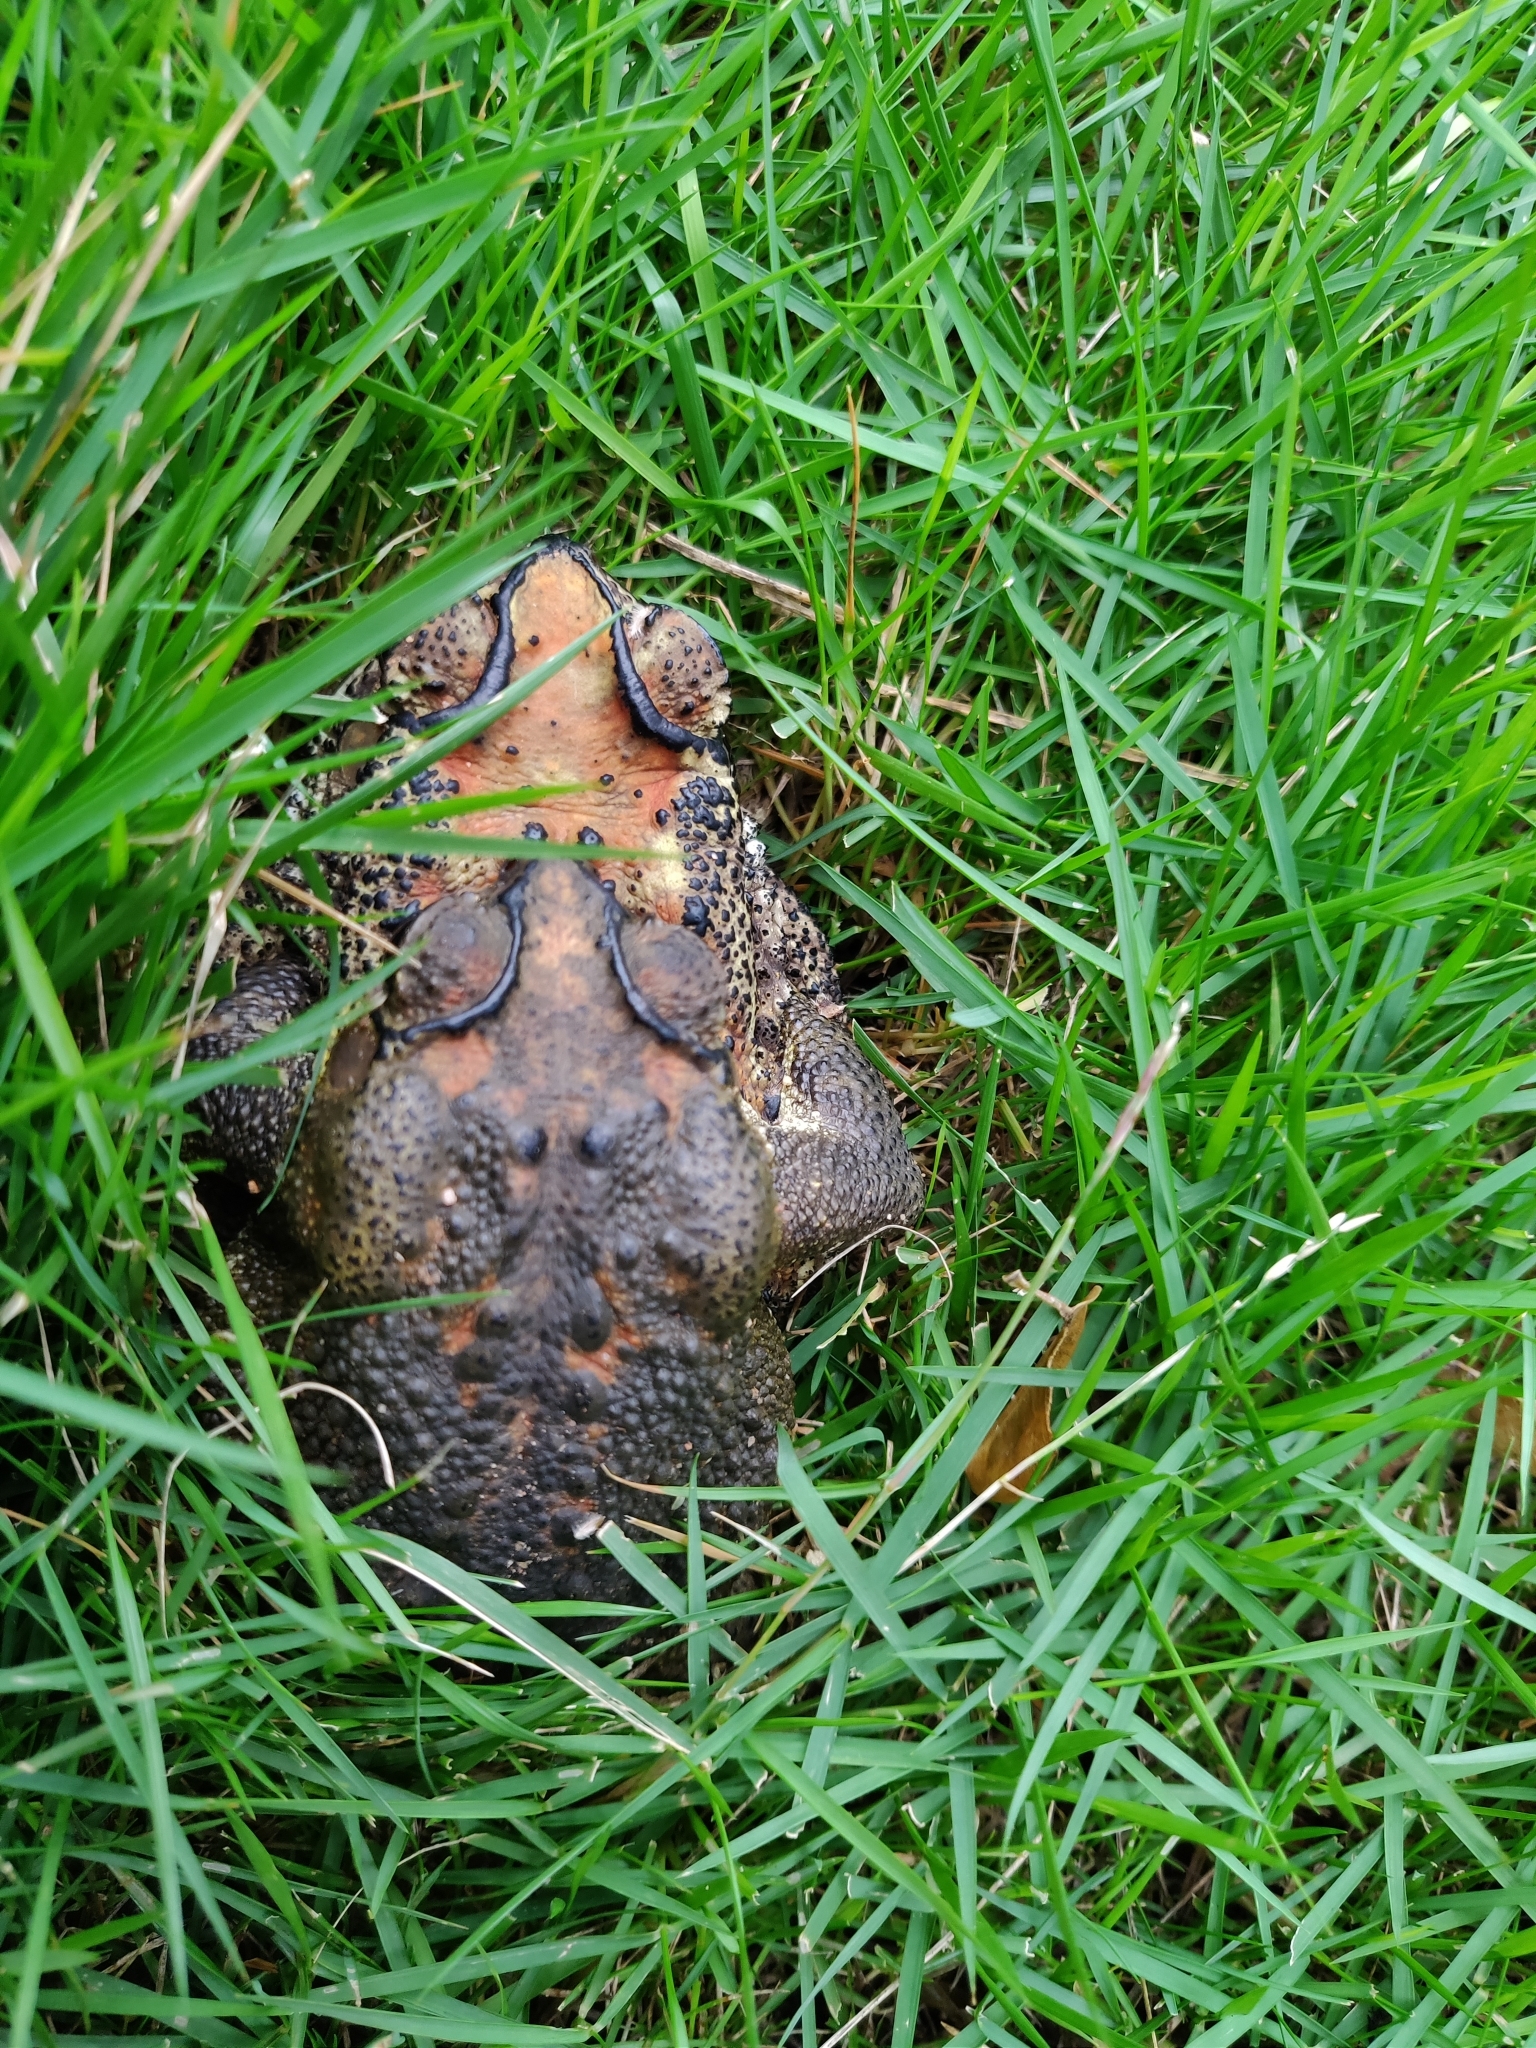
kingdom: Animalia
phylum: Chordata
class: Amphibia
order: Anura
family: Bufonidae
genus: Duttaphrynus
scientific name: Duttaphrynus melanostictus
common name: Common sunda toad
